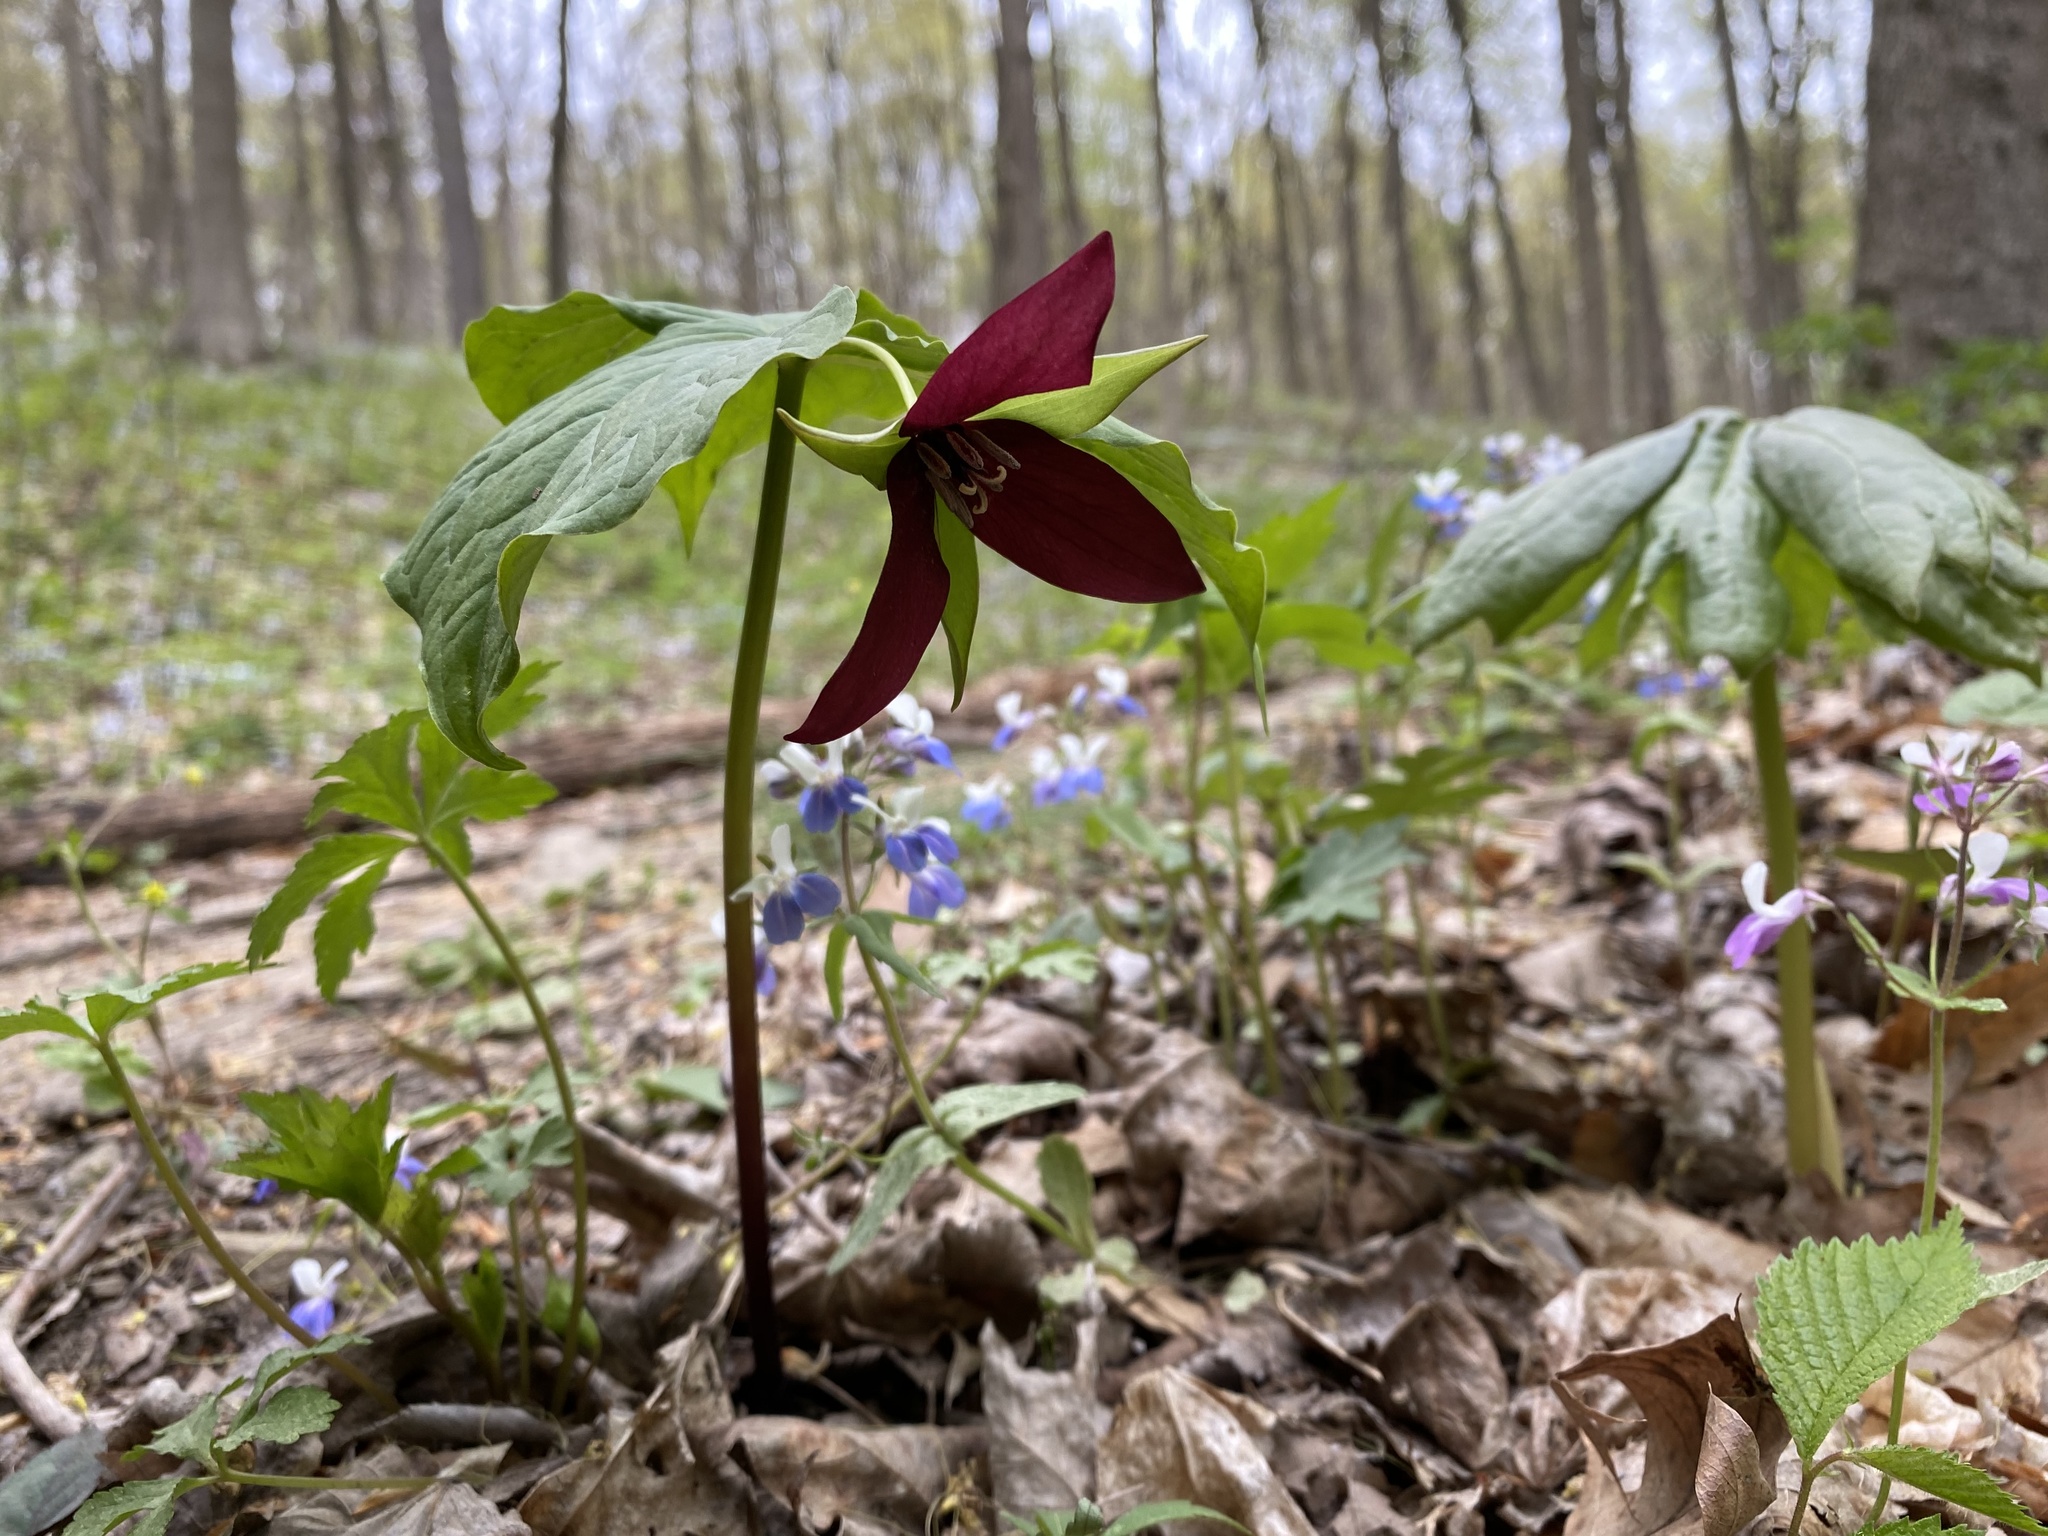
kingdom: Plantae
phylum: Tracheophyta
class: Liliopsida
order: Liliales
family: Melanthiaceae
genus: Trillium
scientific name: Trillium erectum
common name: Purple trillium
